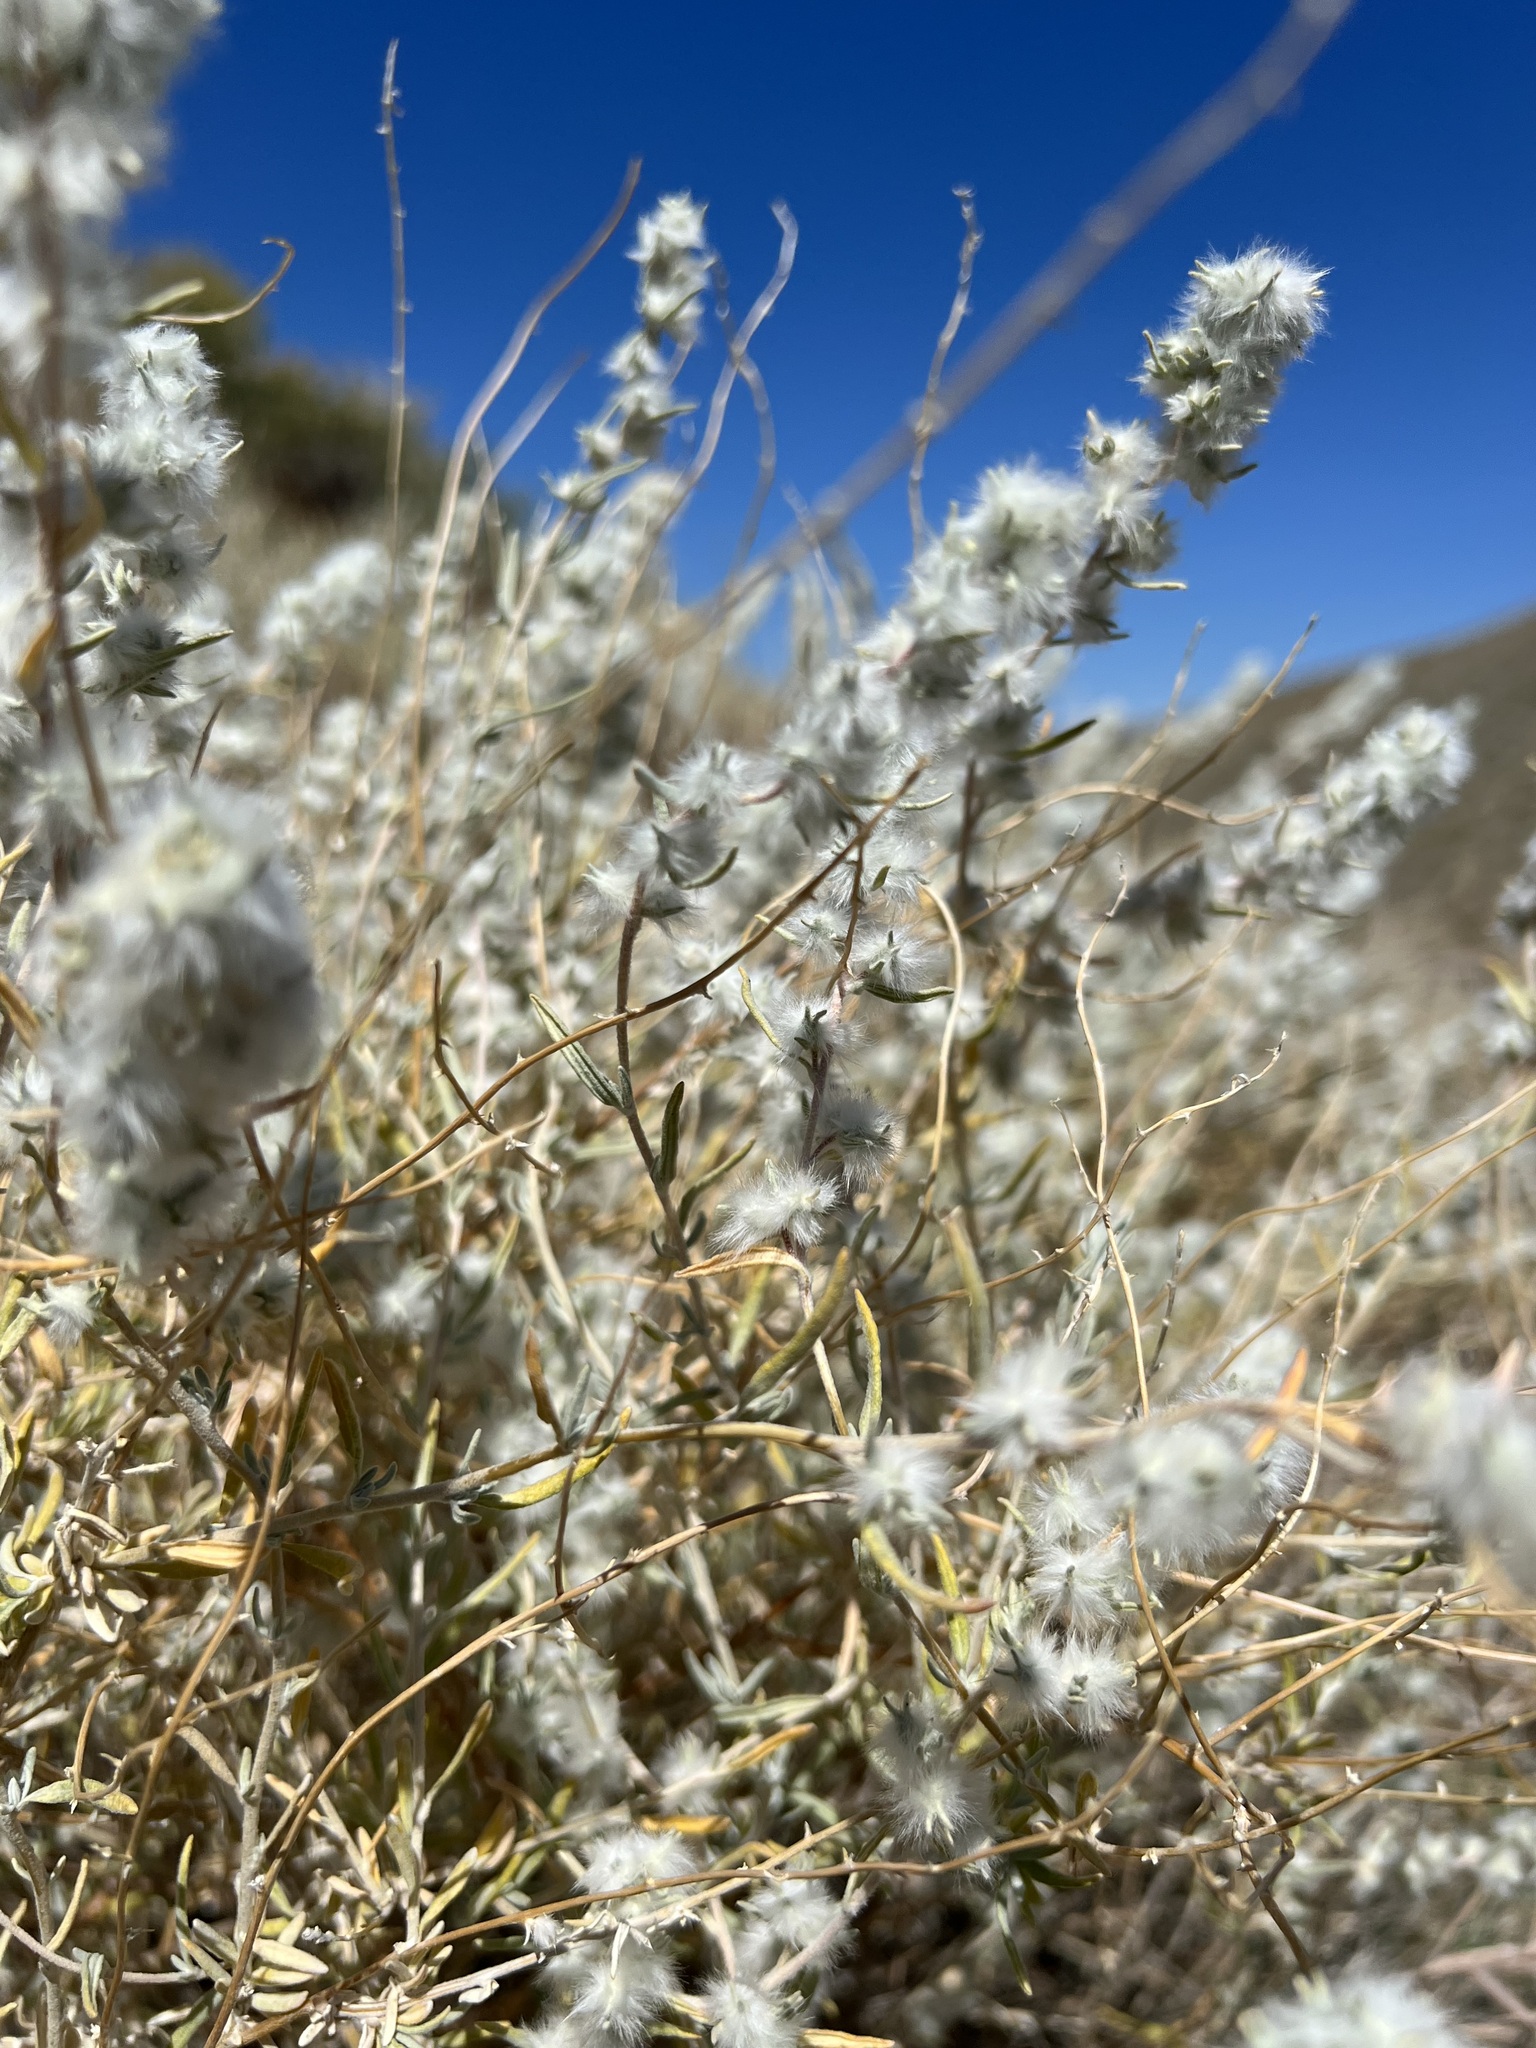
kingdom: Plantae
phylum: Tracheophyta
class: Magnoliopsida
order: Caryophyllales
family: Amaranthaceae
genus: Krascheninnikovia
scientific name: Krascheninnikovia lanata
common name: Winterfat
